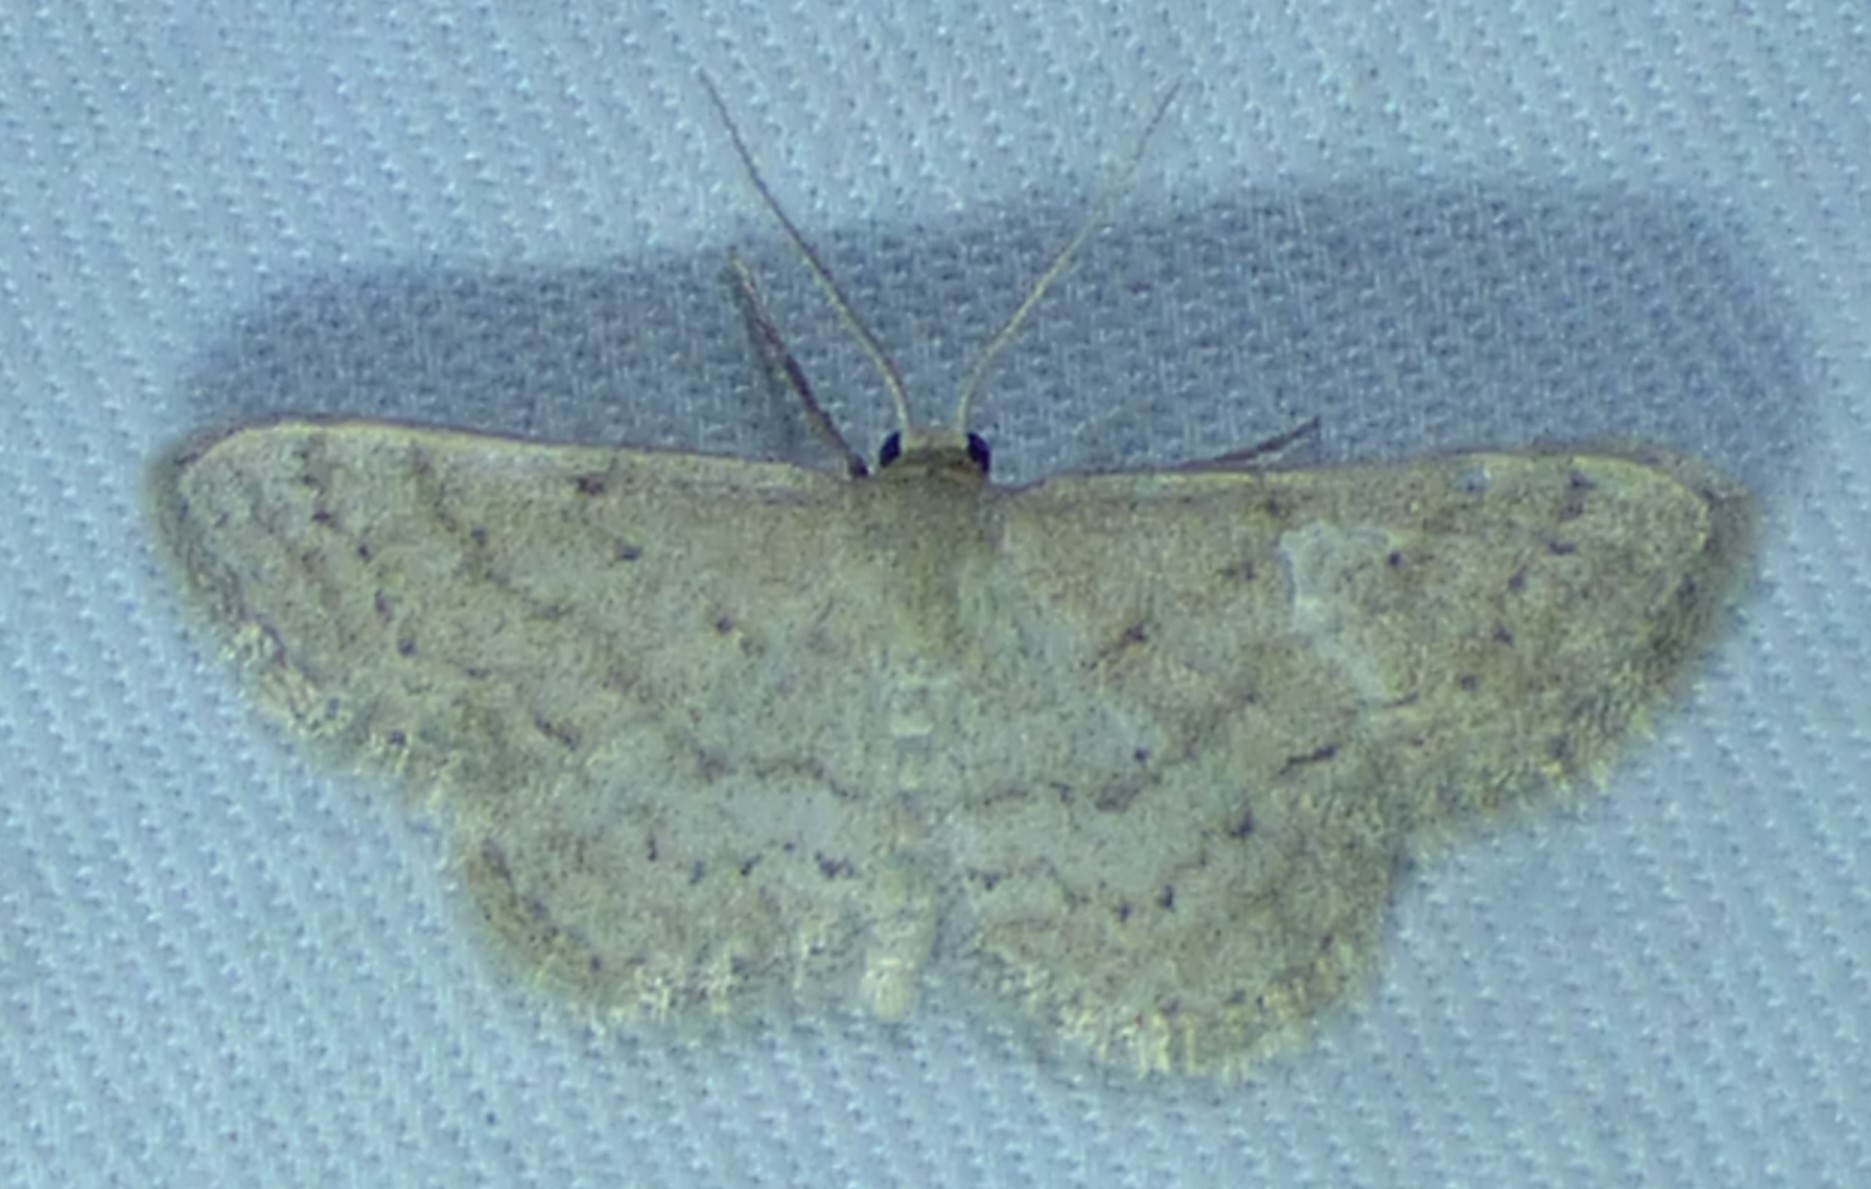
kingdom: Animalia
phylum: Arthropoda
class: Insecta
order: Lepidoptera
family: Geometridae
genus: Lobocleta
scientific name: Lobocleta ossularia
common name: Drab brown wave
